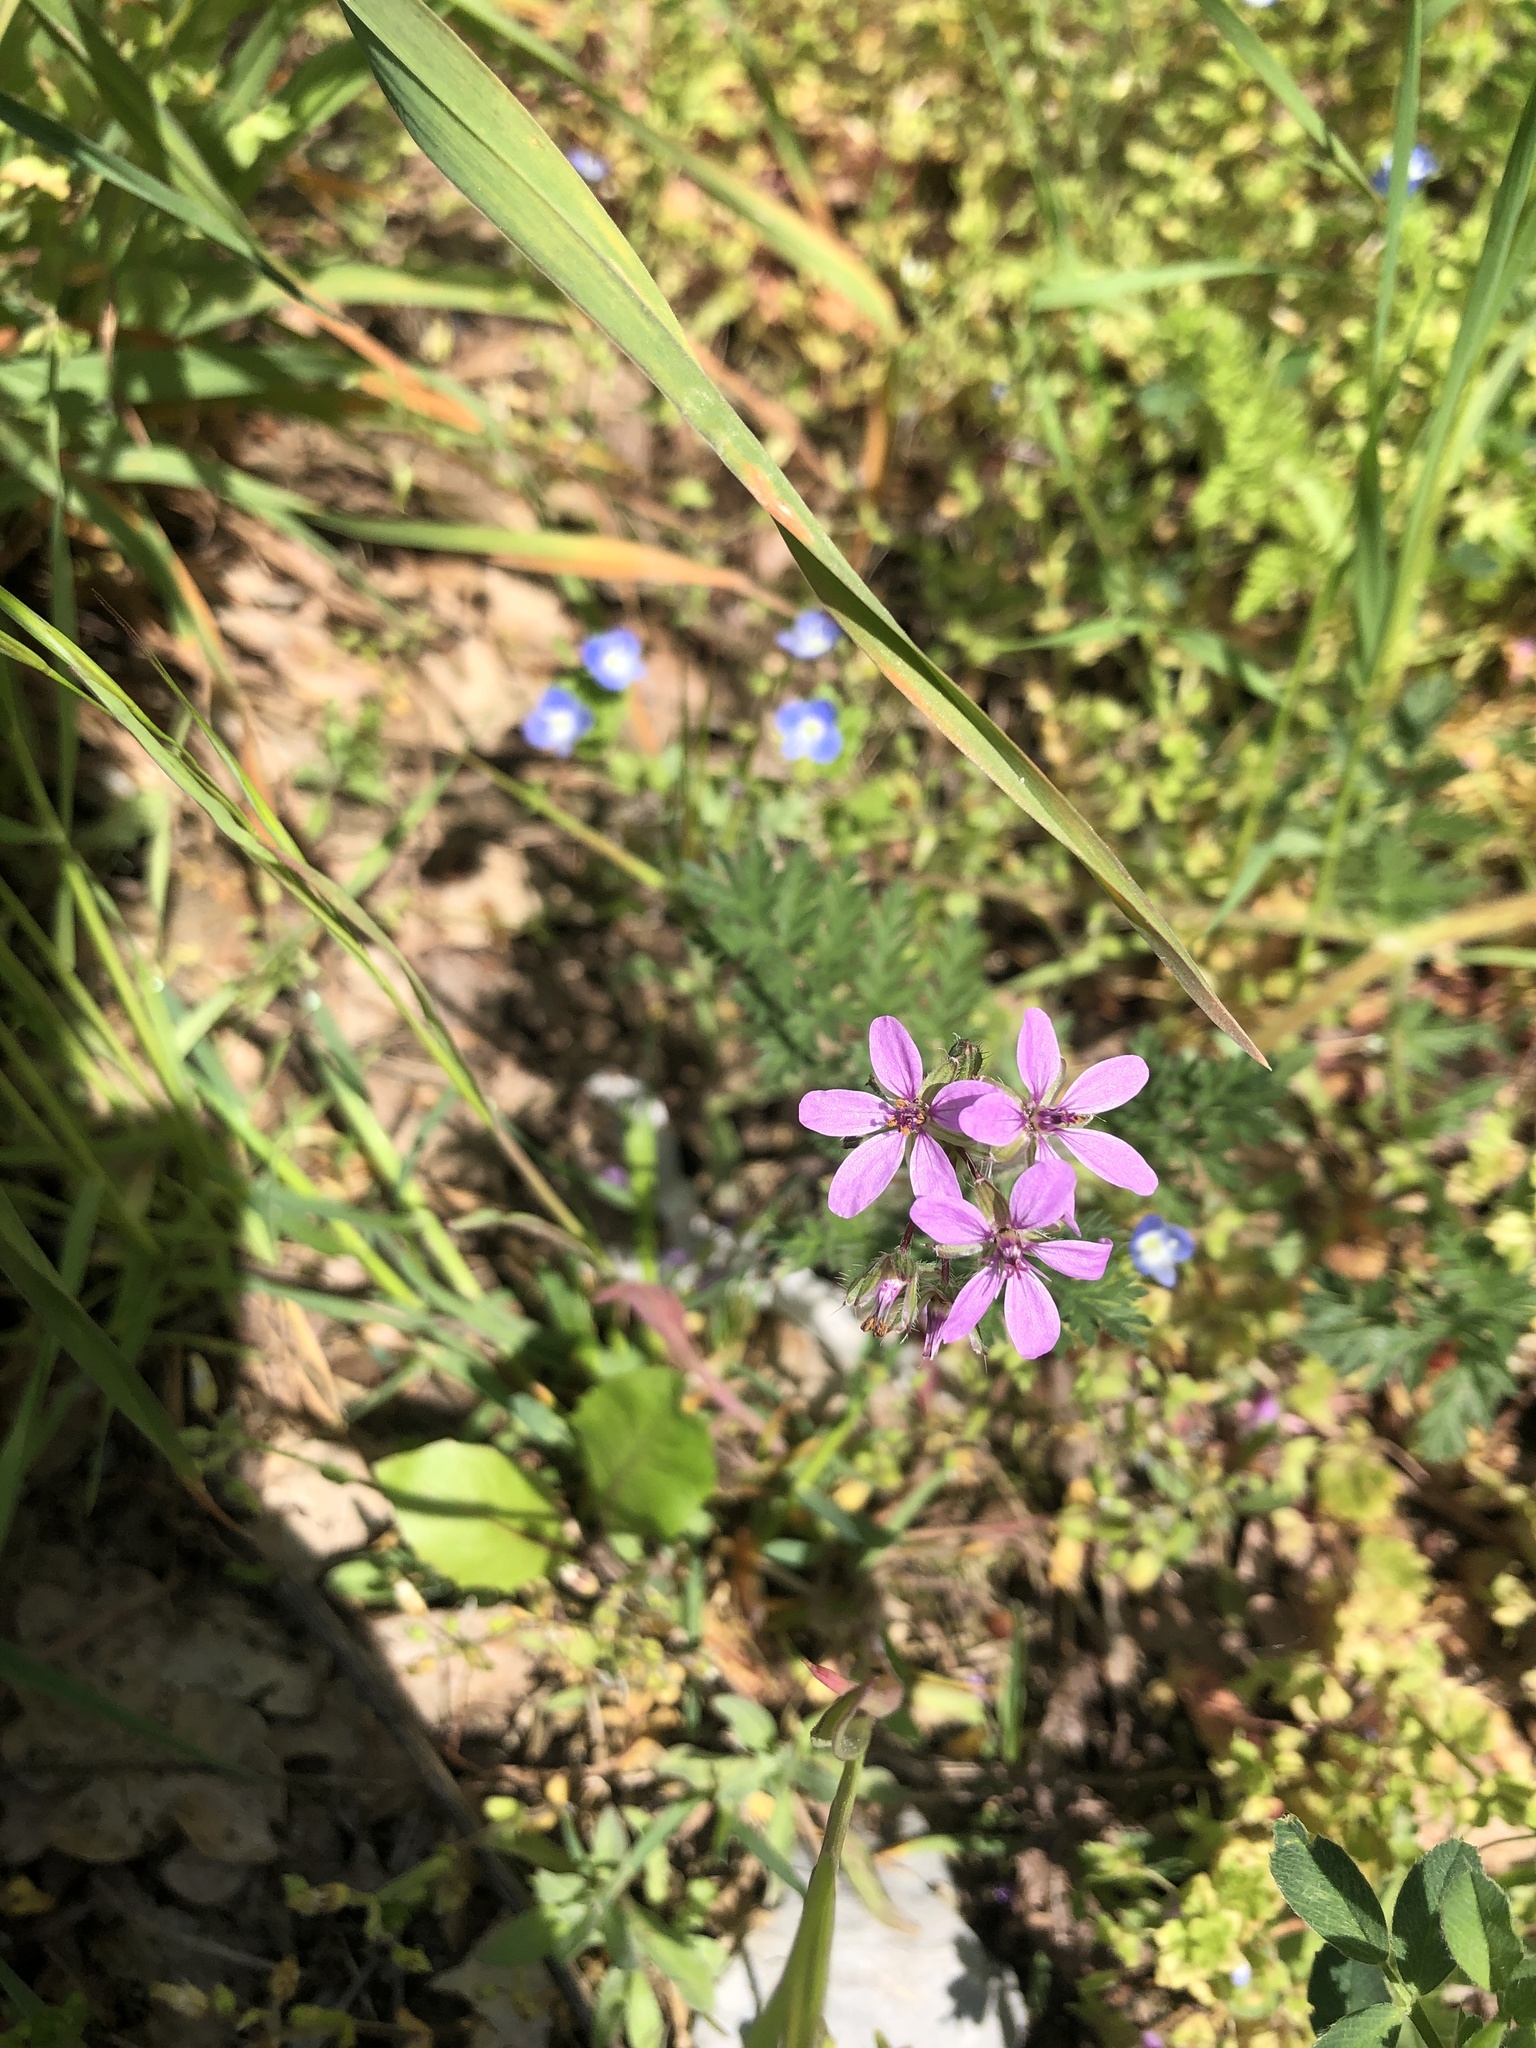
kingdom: Plantae
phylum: Tracheophyta
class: Magnoliopsida
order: Geraniales
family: Geraniaceae
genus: Erodium
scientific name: Erodium cicutarium
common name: Common stork's-bill
